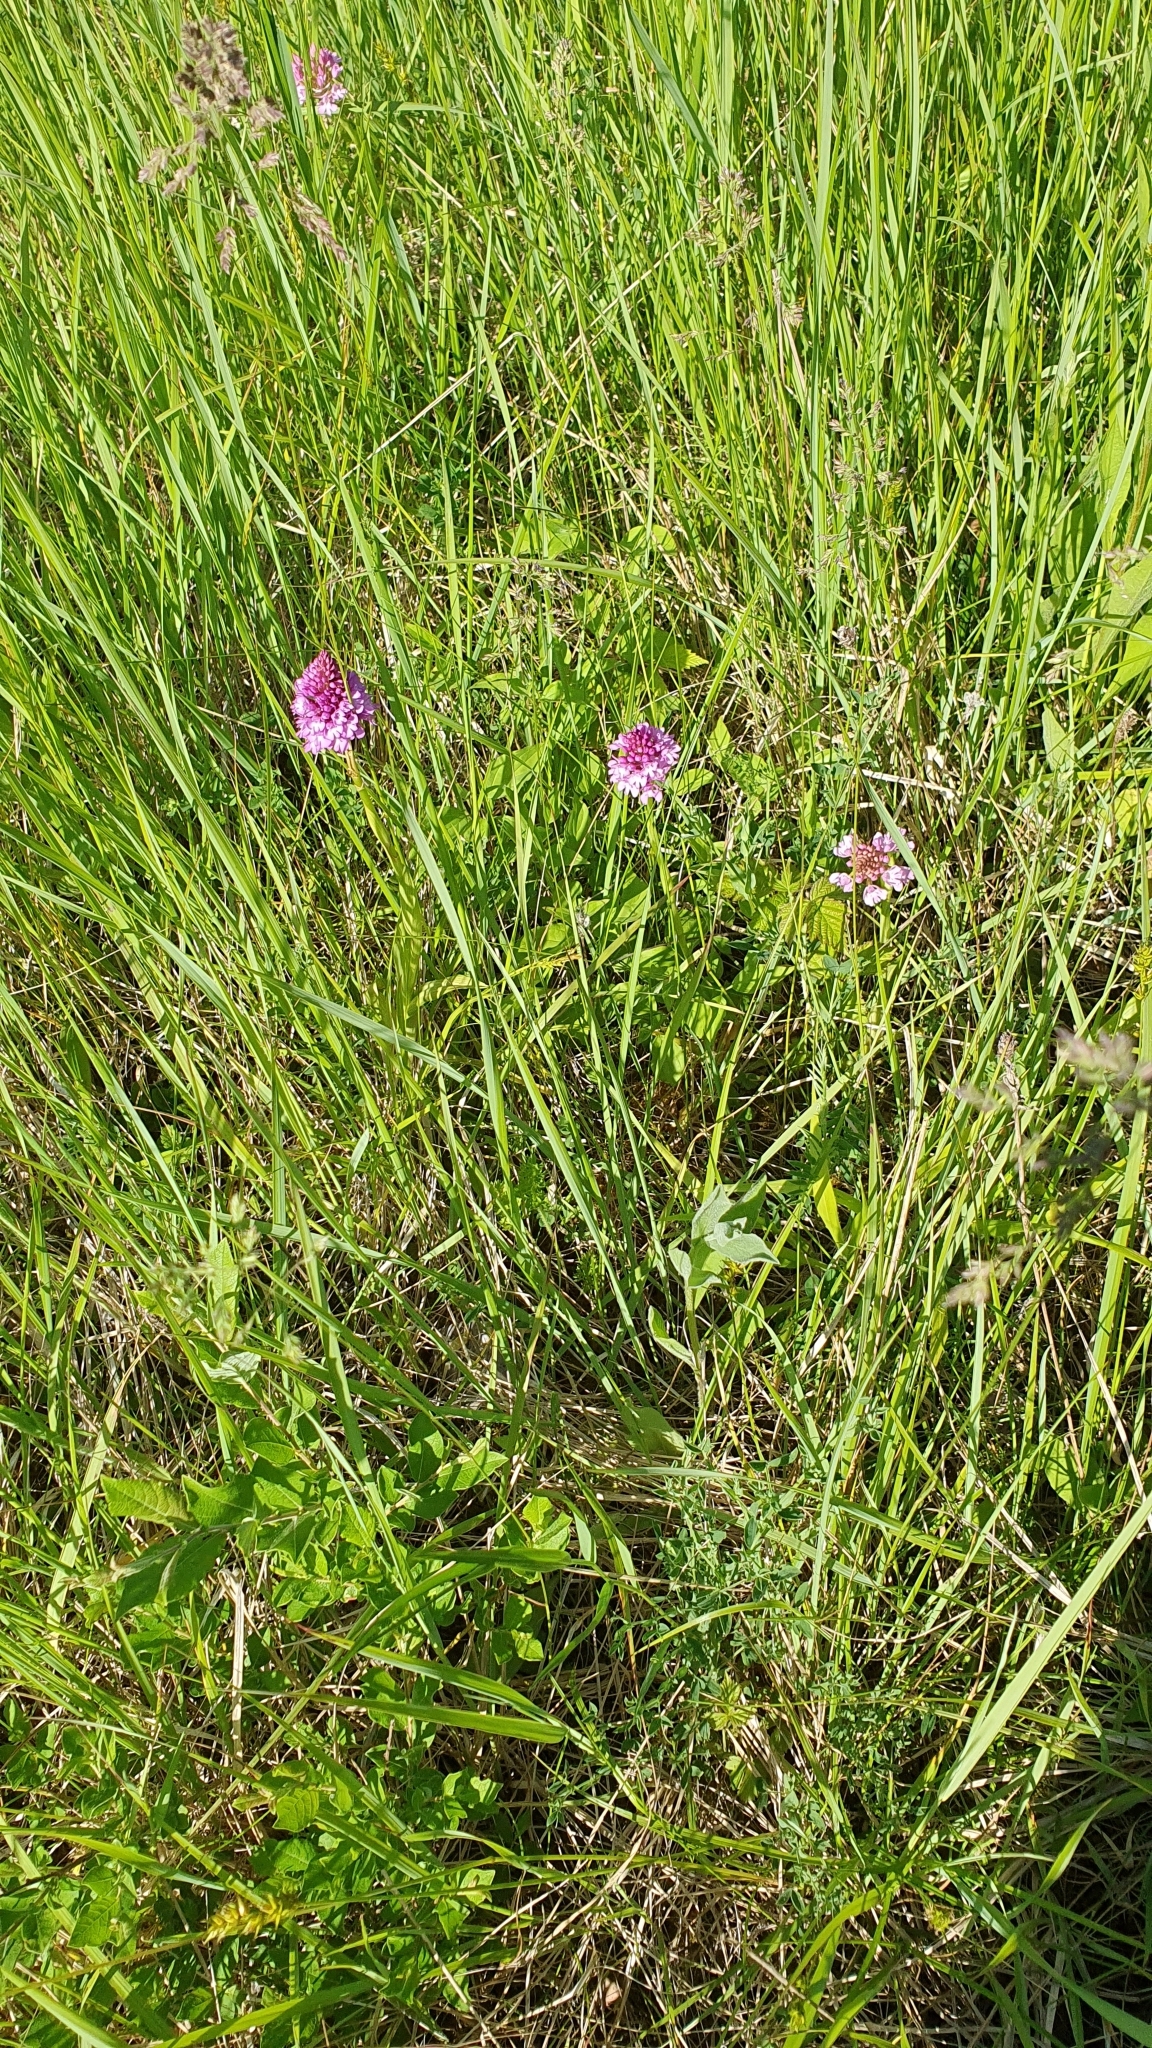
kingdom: Plantae
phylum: Tracheophyta
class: Liliopsida
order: Asparagales
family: Orchidaceae
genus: Anacamptis
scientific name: Anacamptis pyramidalis
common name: Pyramidal orchid
